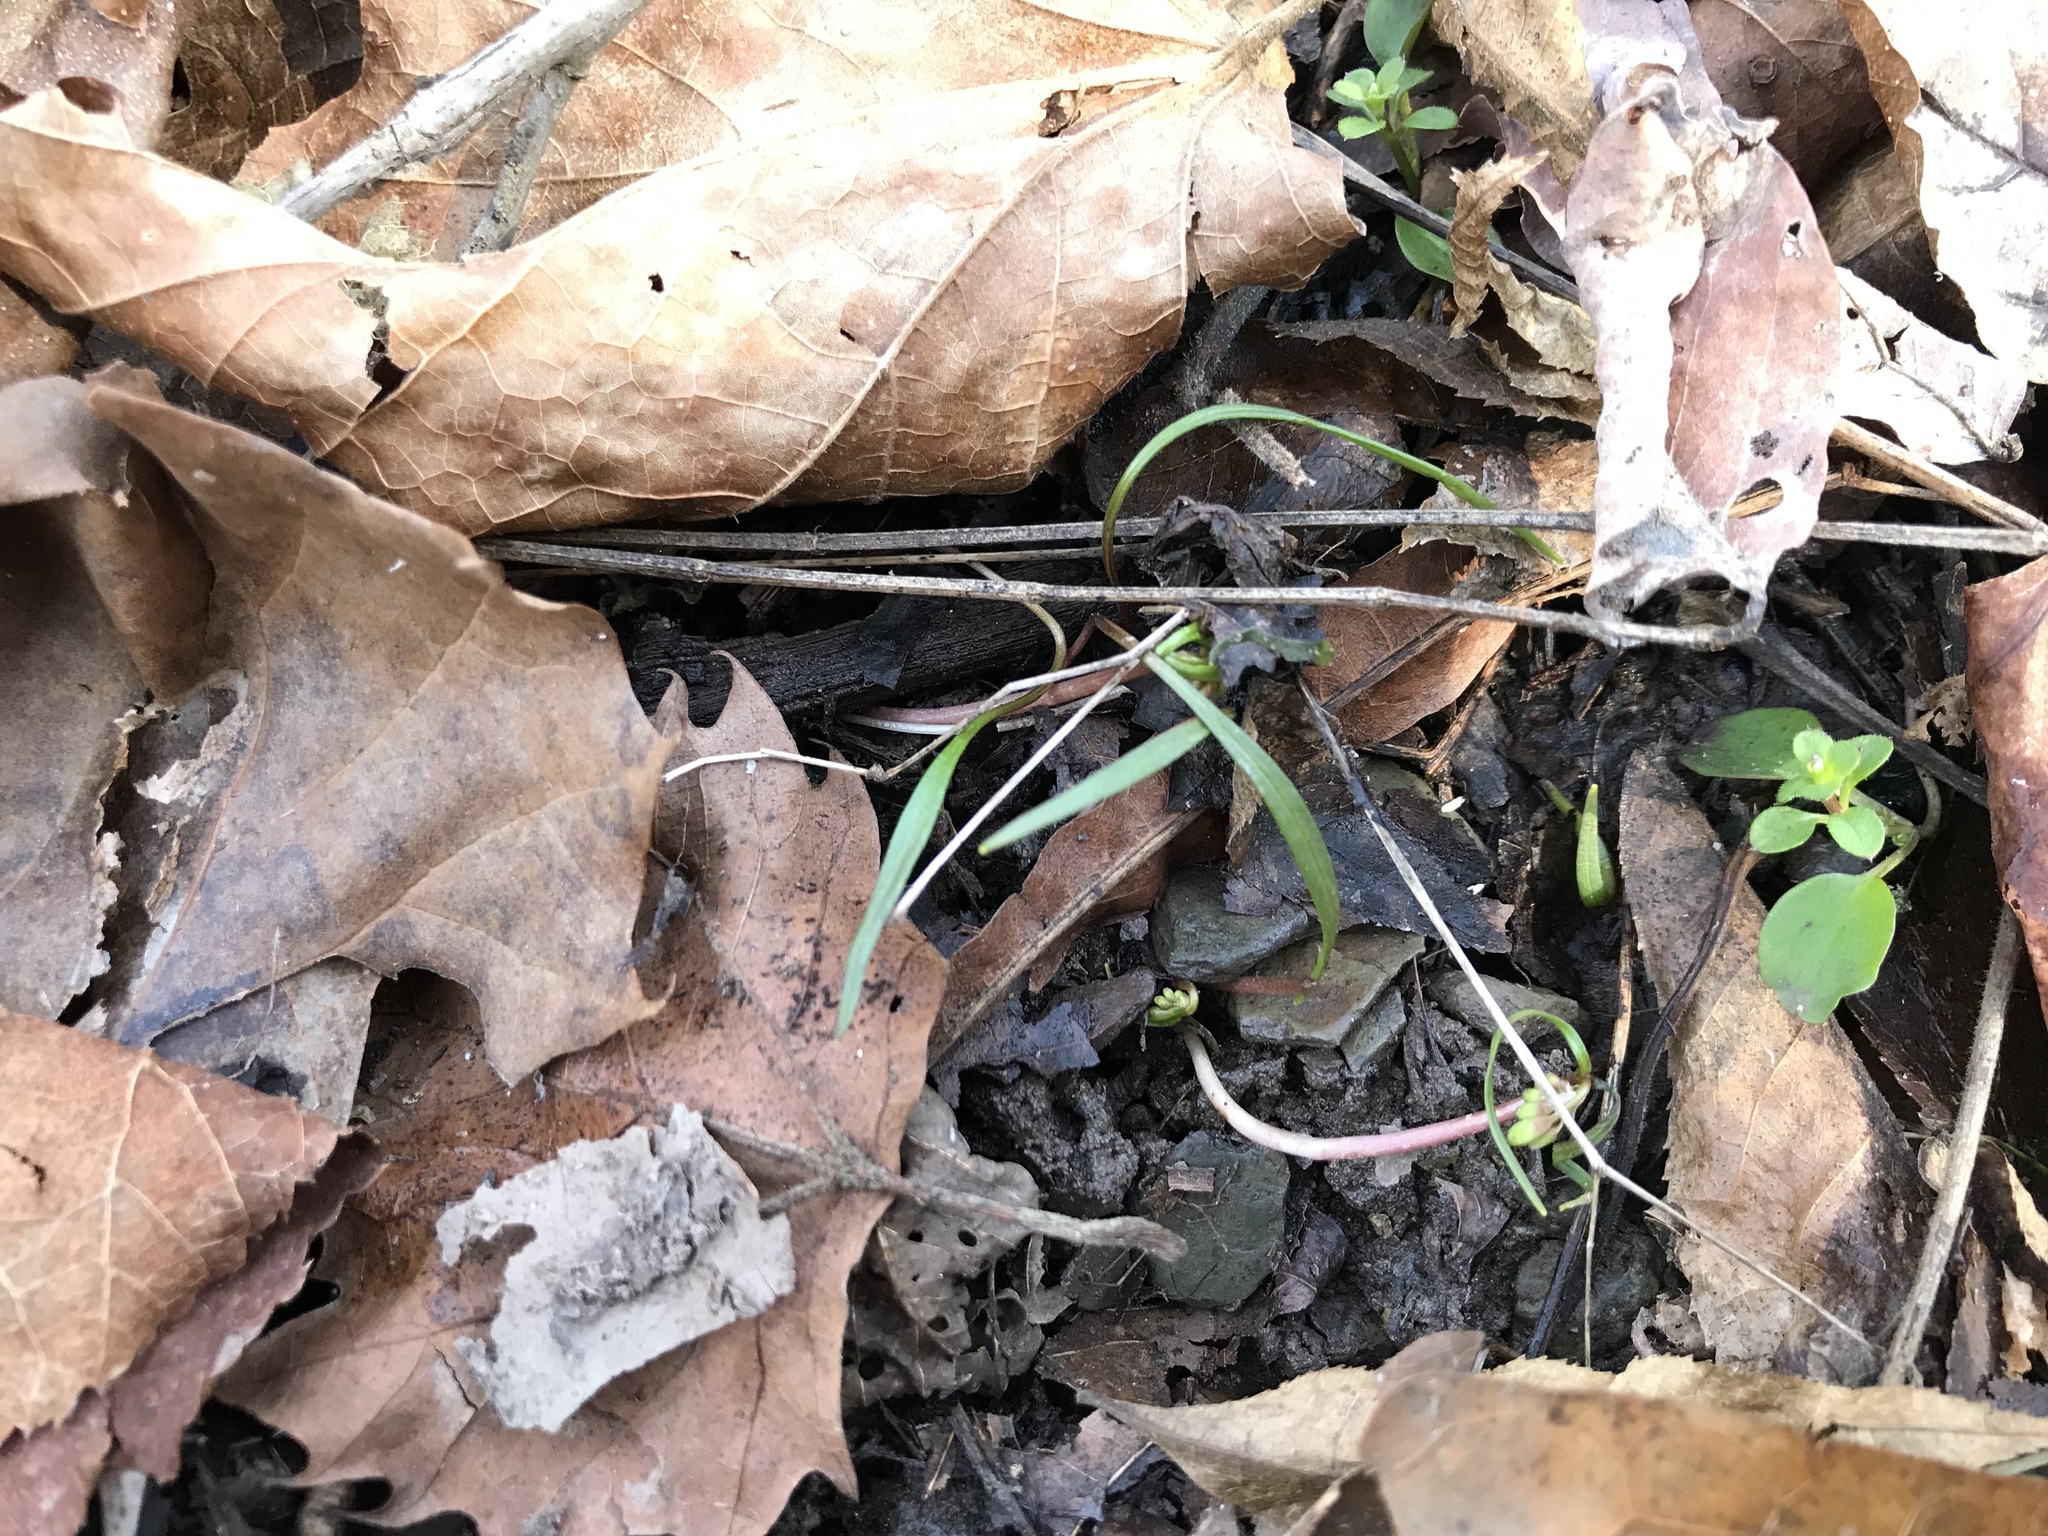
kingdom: Plantae
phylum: Tracheophyta
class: Magnoliopsida
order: Caryophyllales
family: Montiaceae
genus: Claytonia
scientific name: Claytonia virginica
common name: Virginia springbeauty
